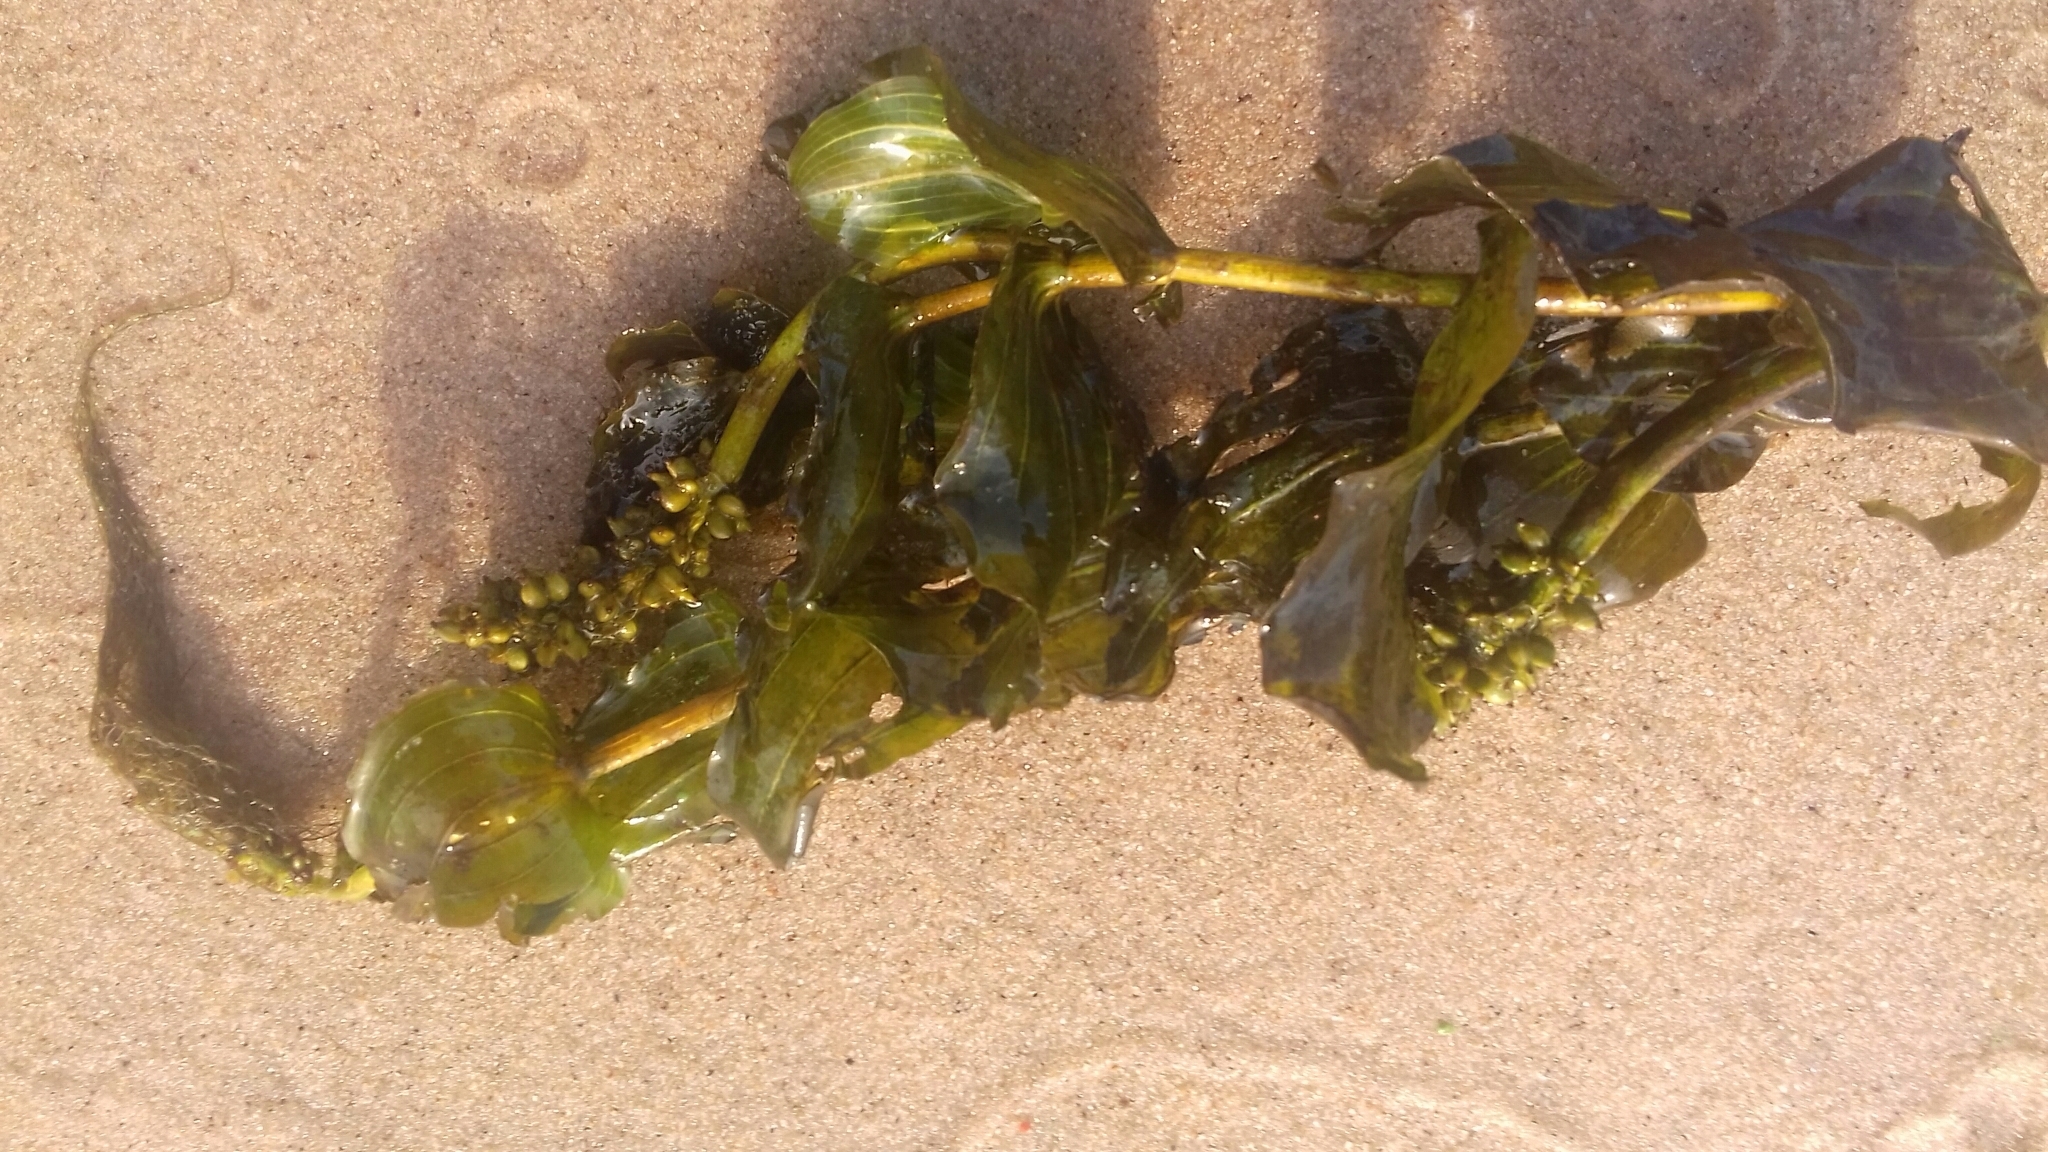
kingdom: Plantae
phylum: Tracheophyta
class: Liliopsida
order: Alismatales
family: Potamogetonaceae
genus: Potamogeton
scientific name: Potamogeton perfoliatus
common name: Perfoliate pondweed
